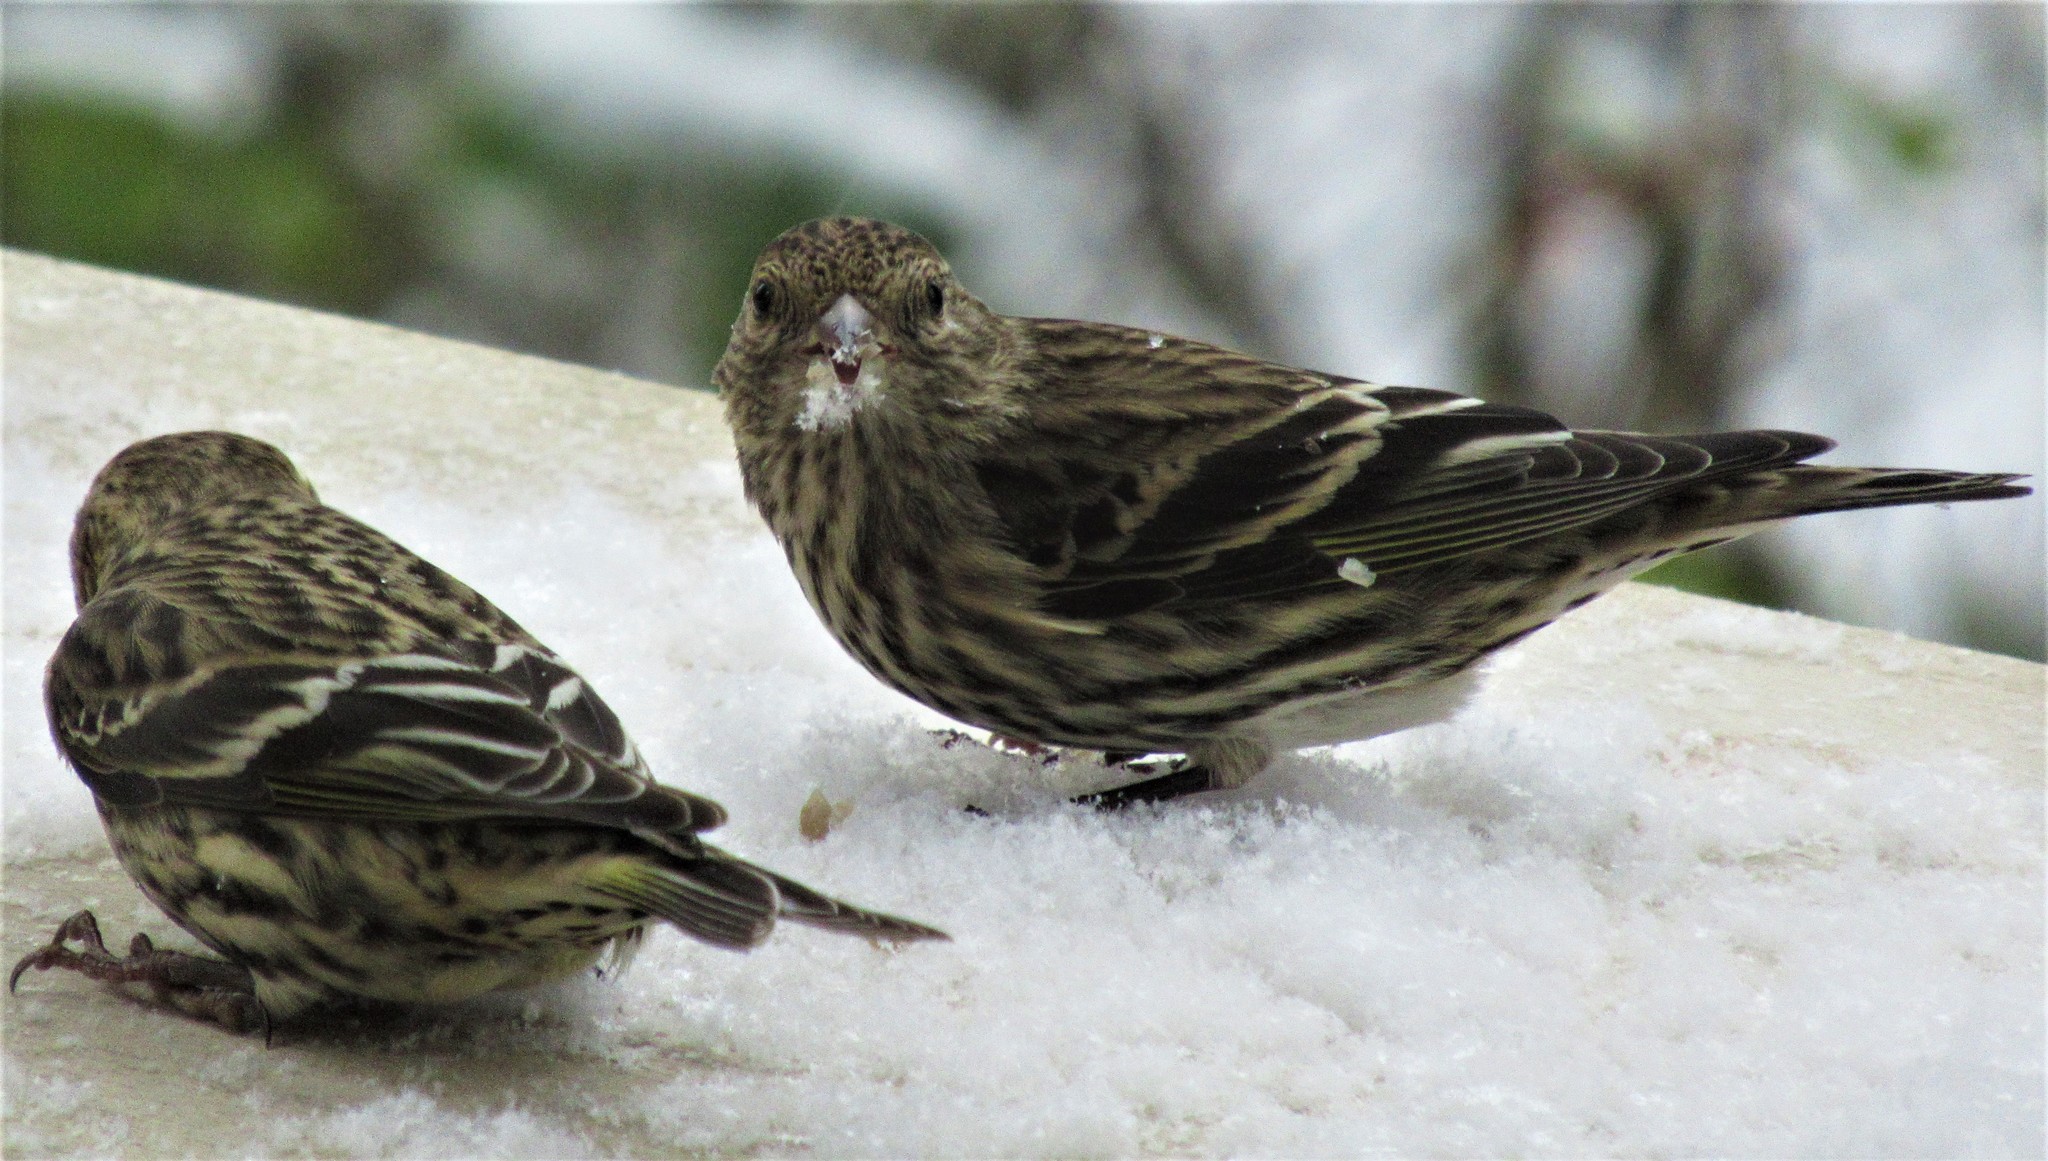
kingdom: Animalia
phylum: Chordata
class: Aves
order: Passeriformes
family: Fringillidae
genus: Spinus
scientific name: Spinus pinus
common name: Pine siskin
